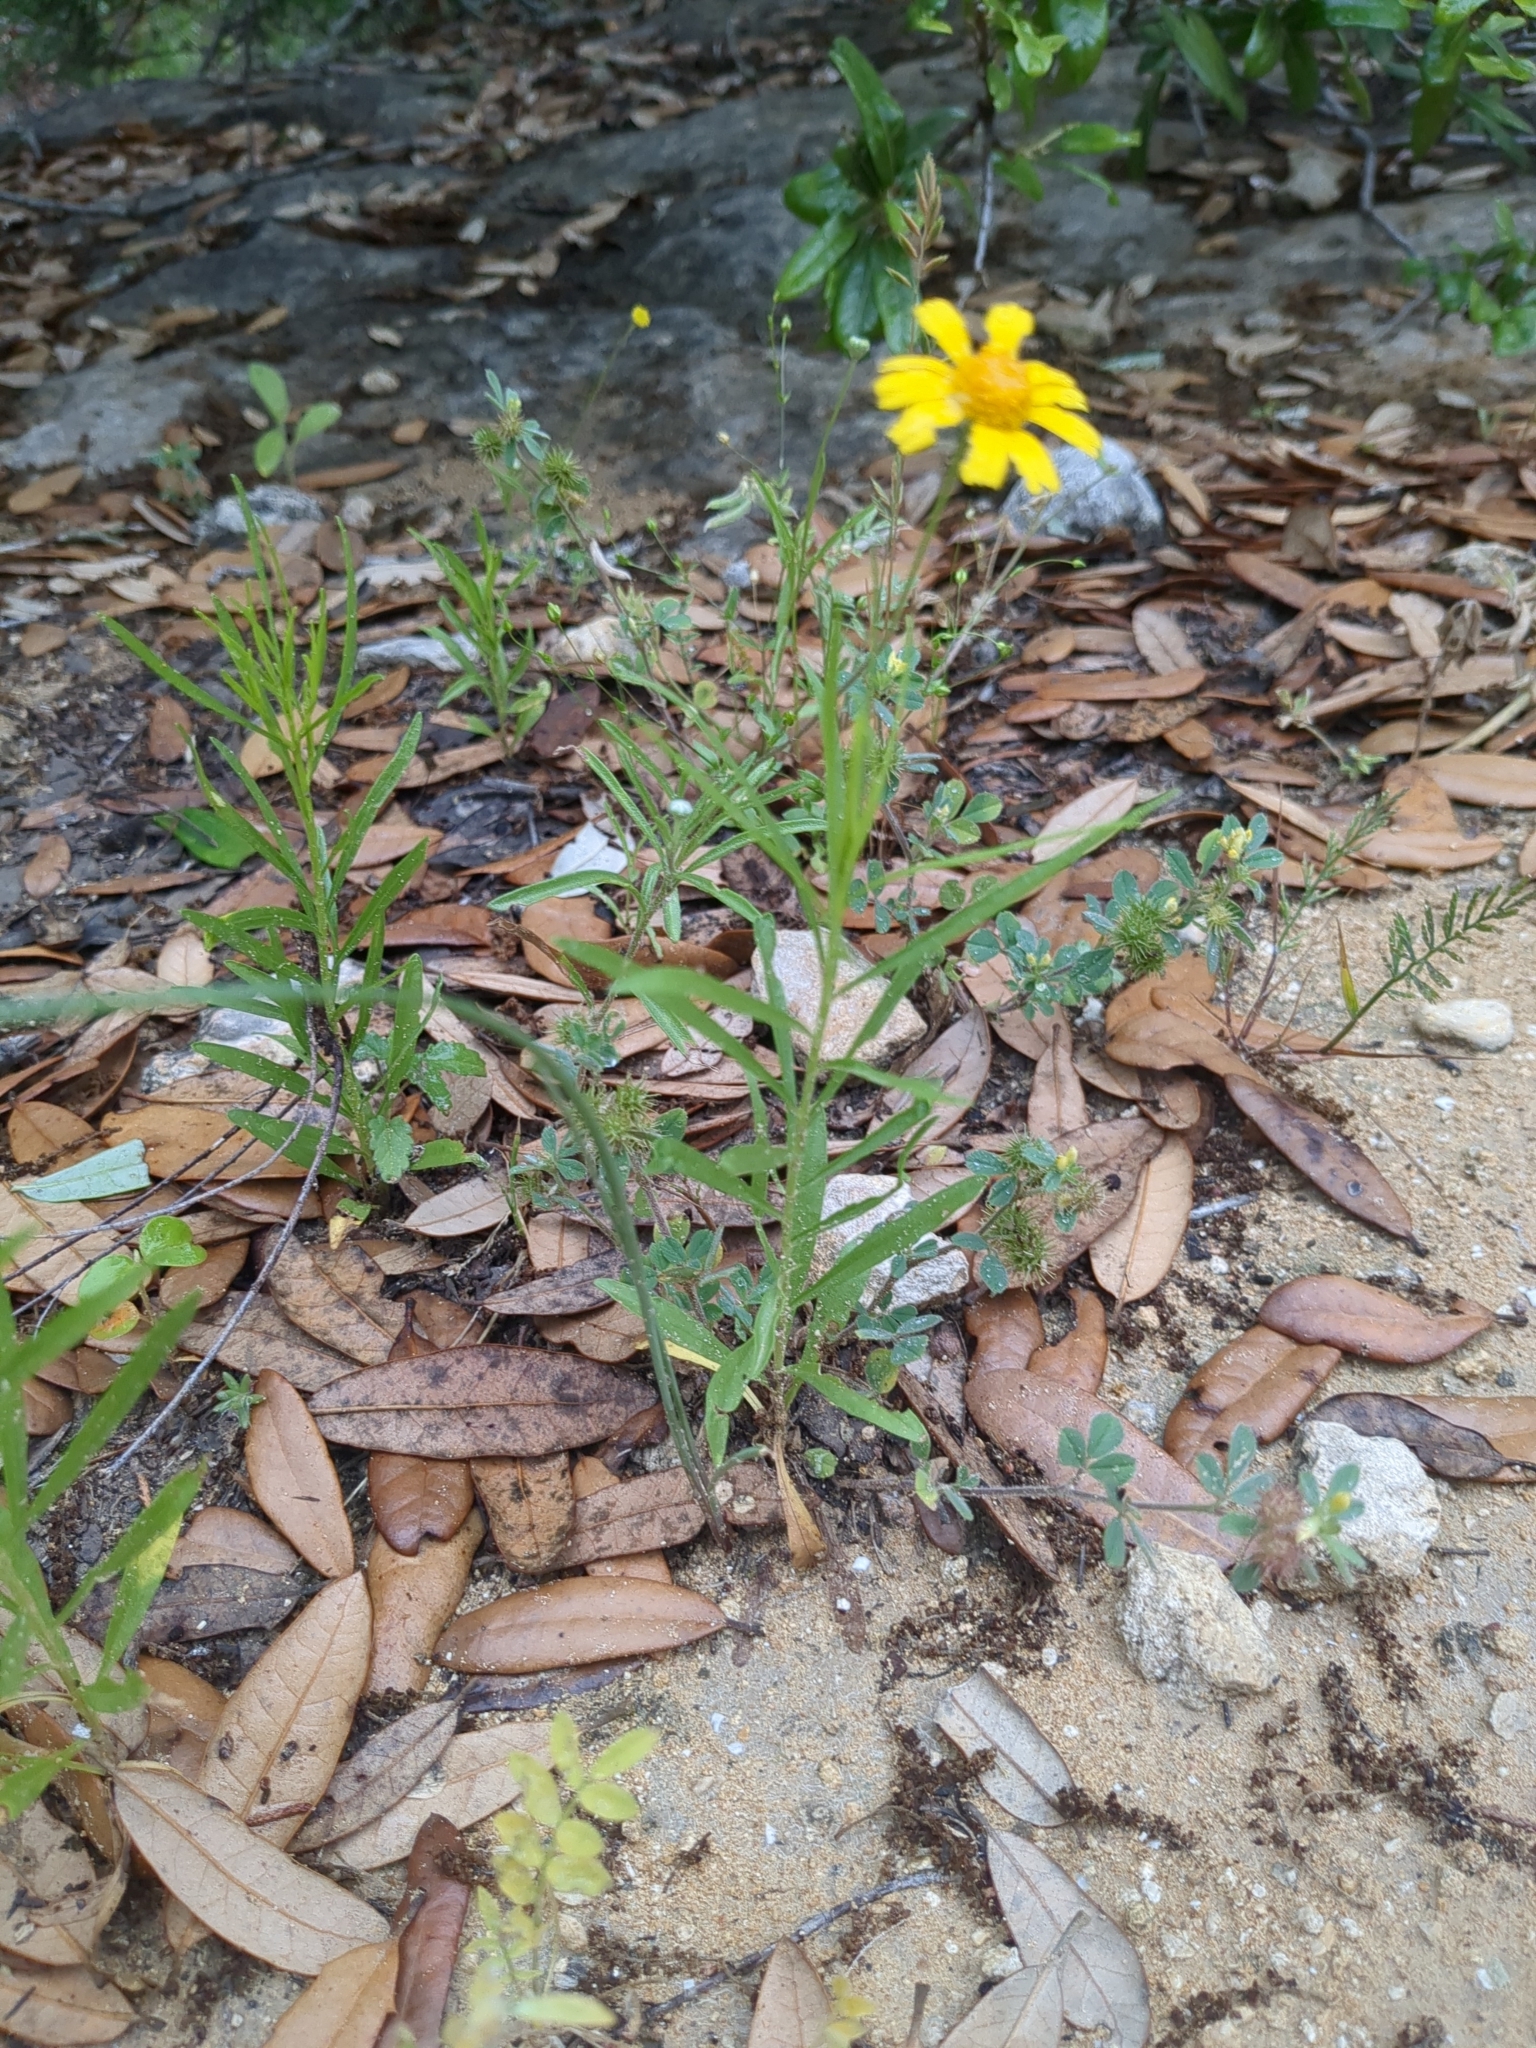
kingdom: Plantae
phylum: Tracheophyta
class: Magnoliopsida
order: Asterales
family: Asteraceae
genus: Tetraneuris
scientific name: Tetraneuris linearifolia
